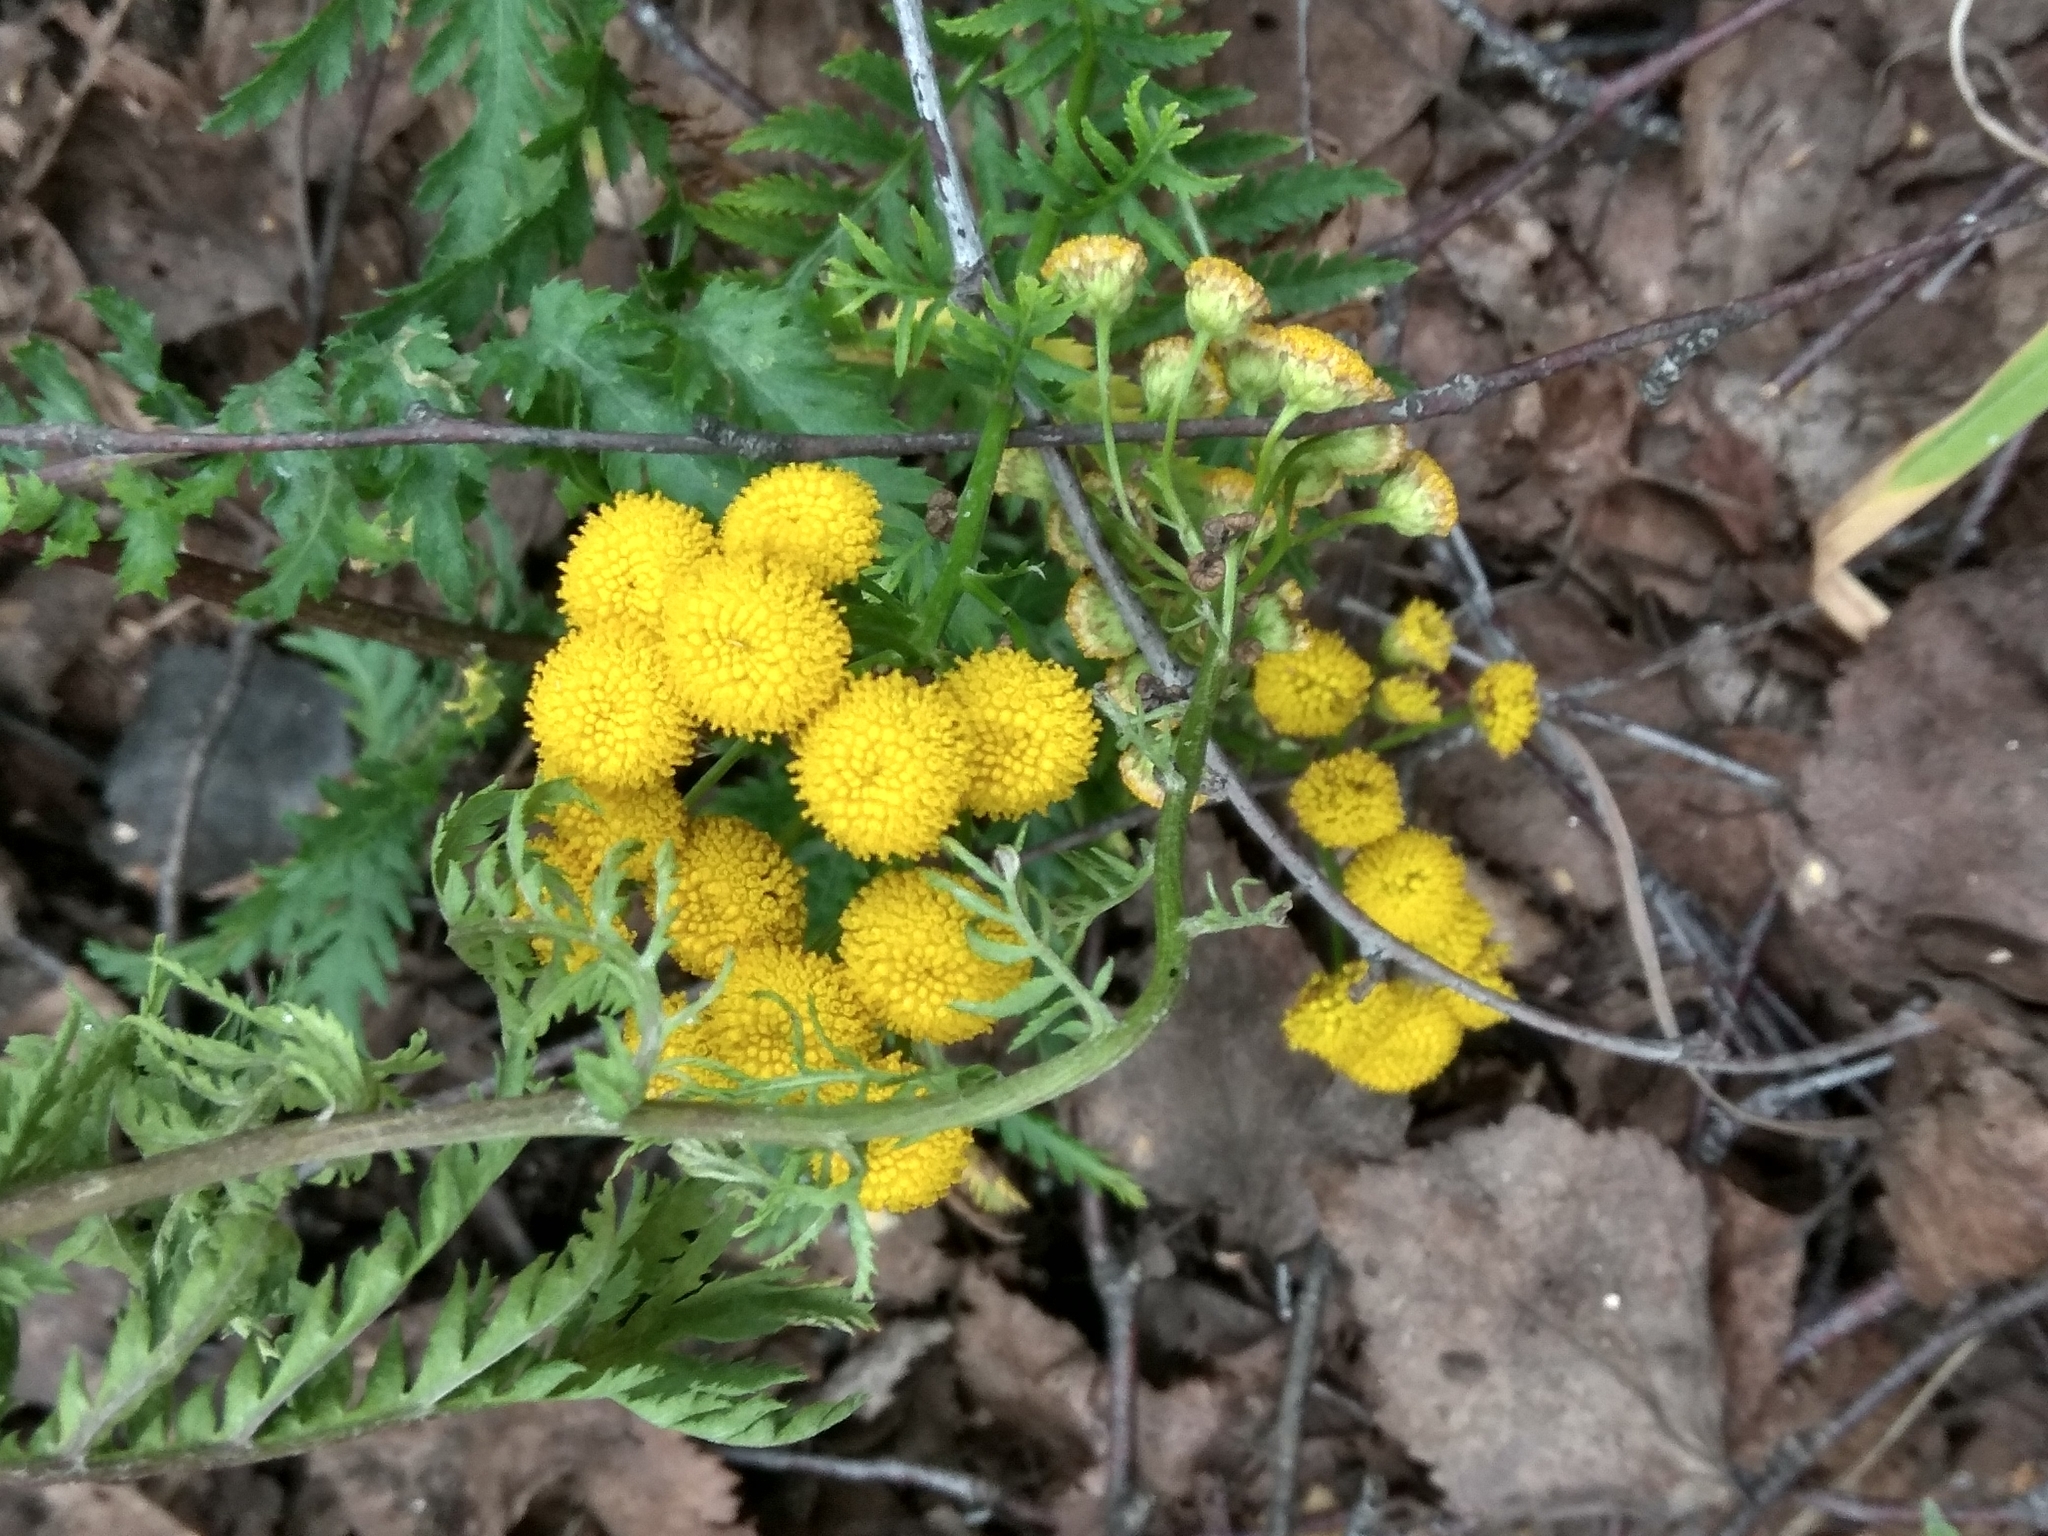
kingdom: Plantae
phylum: Tracheophyta
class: Magnoliopsida
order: Asterales
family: Asteraceae
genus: Tanacetum
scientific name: Tanacetum vulgare
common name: Common tansy
